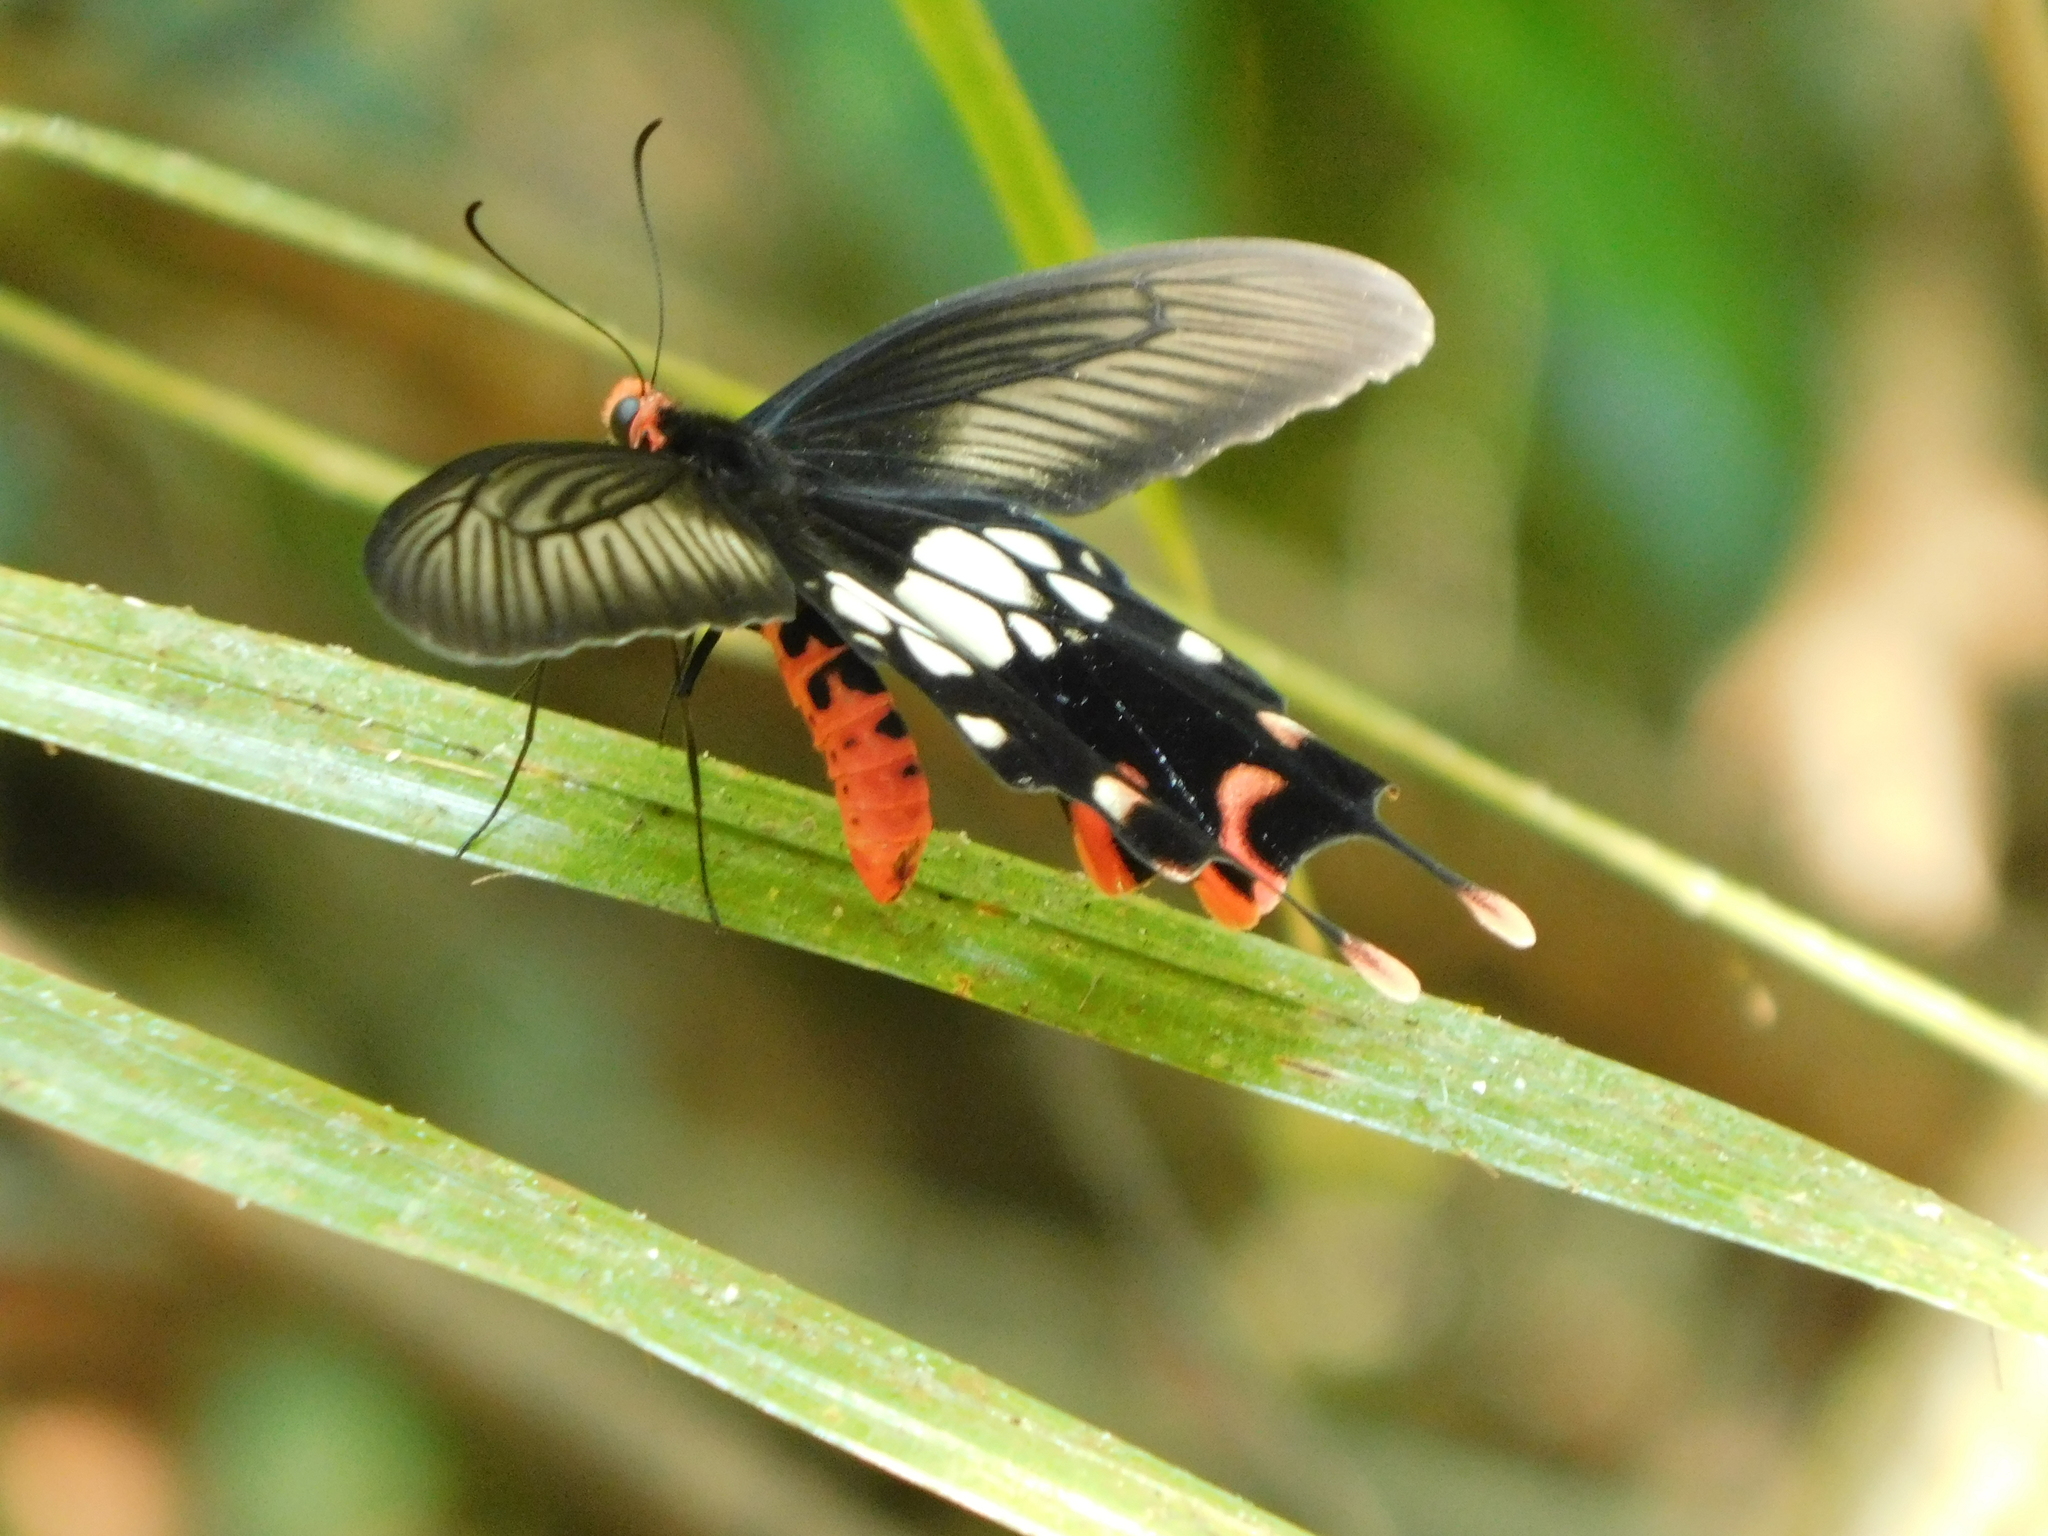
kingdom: Animalia
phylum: Arthropoda
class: Insecta
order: Lepidoptera
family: Papilionidae
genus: Losaria
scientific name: Losaria rhodifer
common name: Andaman clubtail
